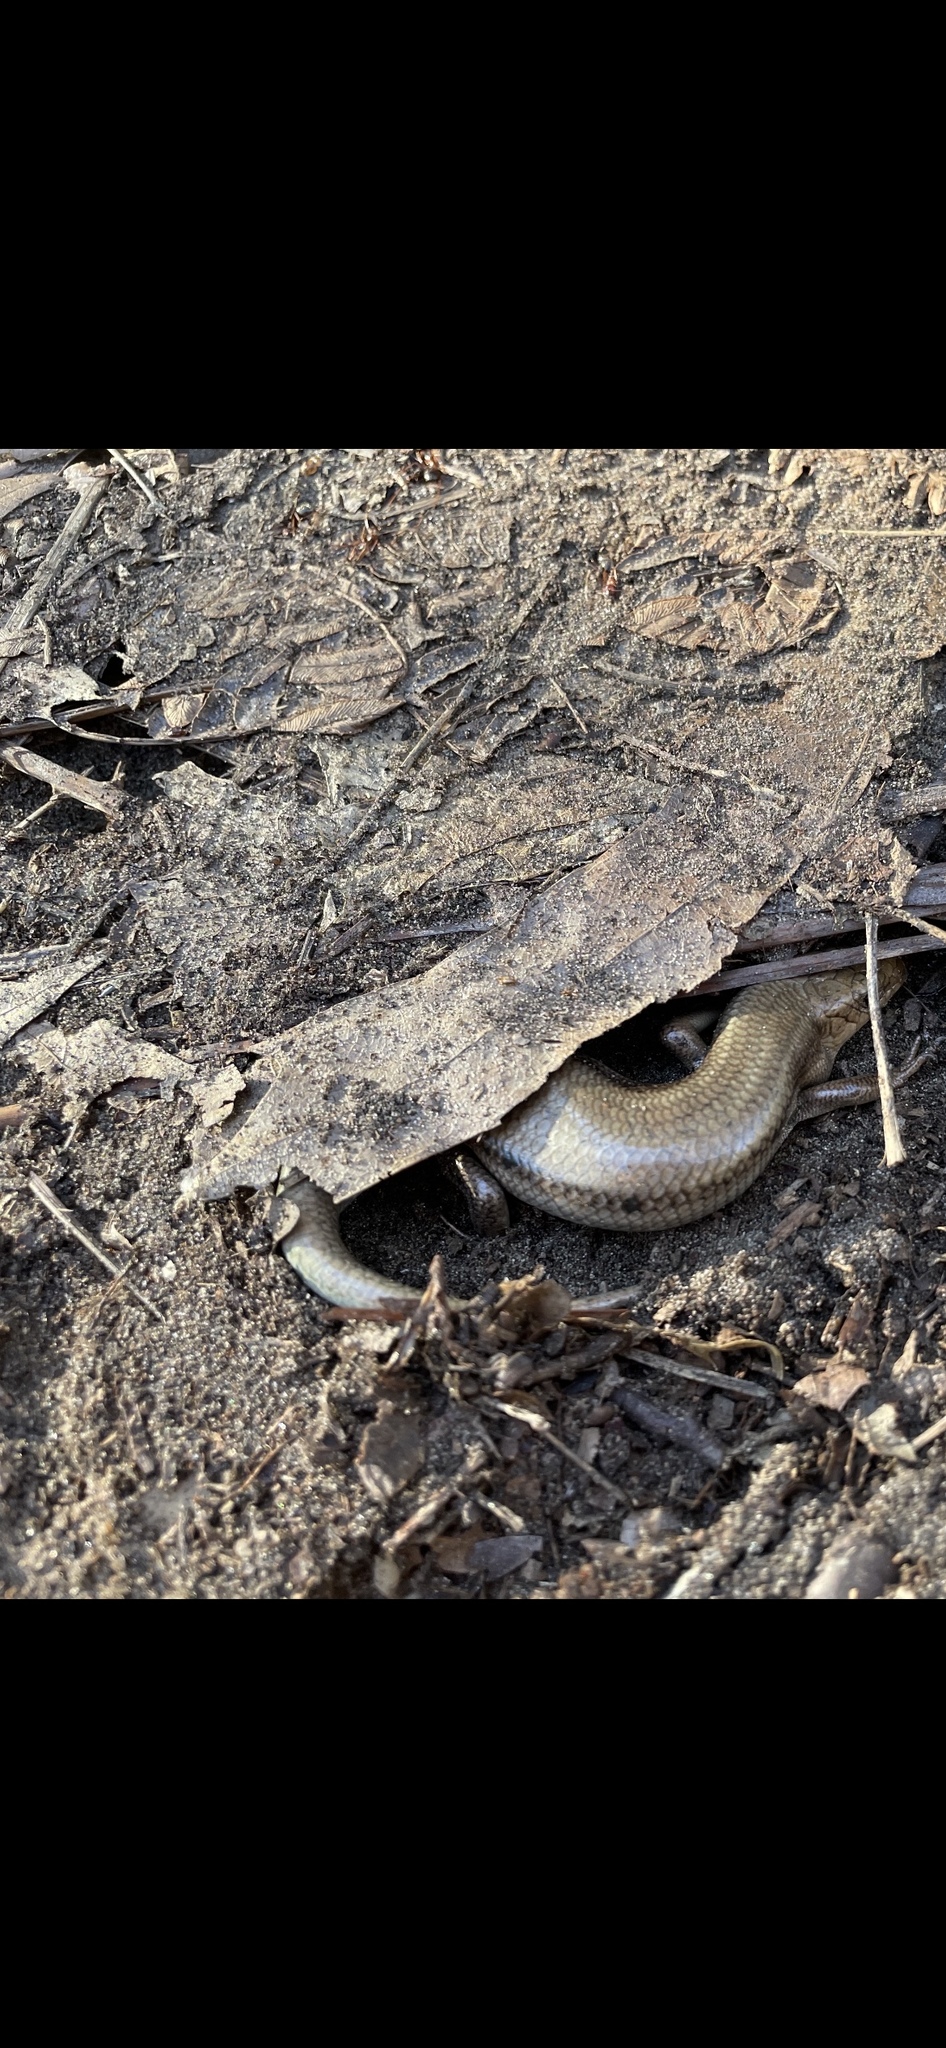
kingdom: Animalia
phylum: Chordata
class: Squamata
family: Scincidae
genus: Plestiodon
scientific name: Plestiodon fasciatus
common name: Five-lined skink
